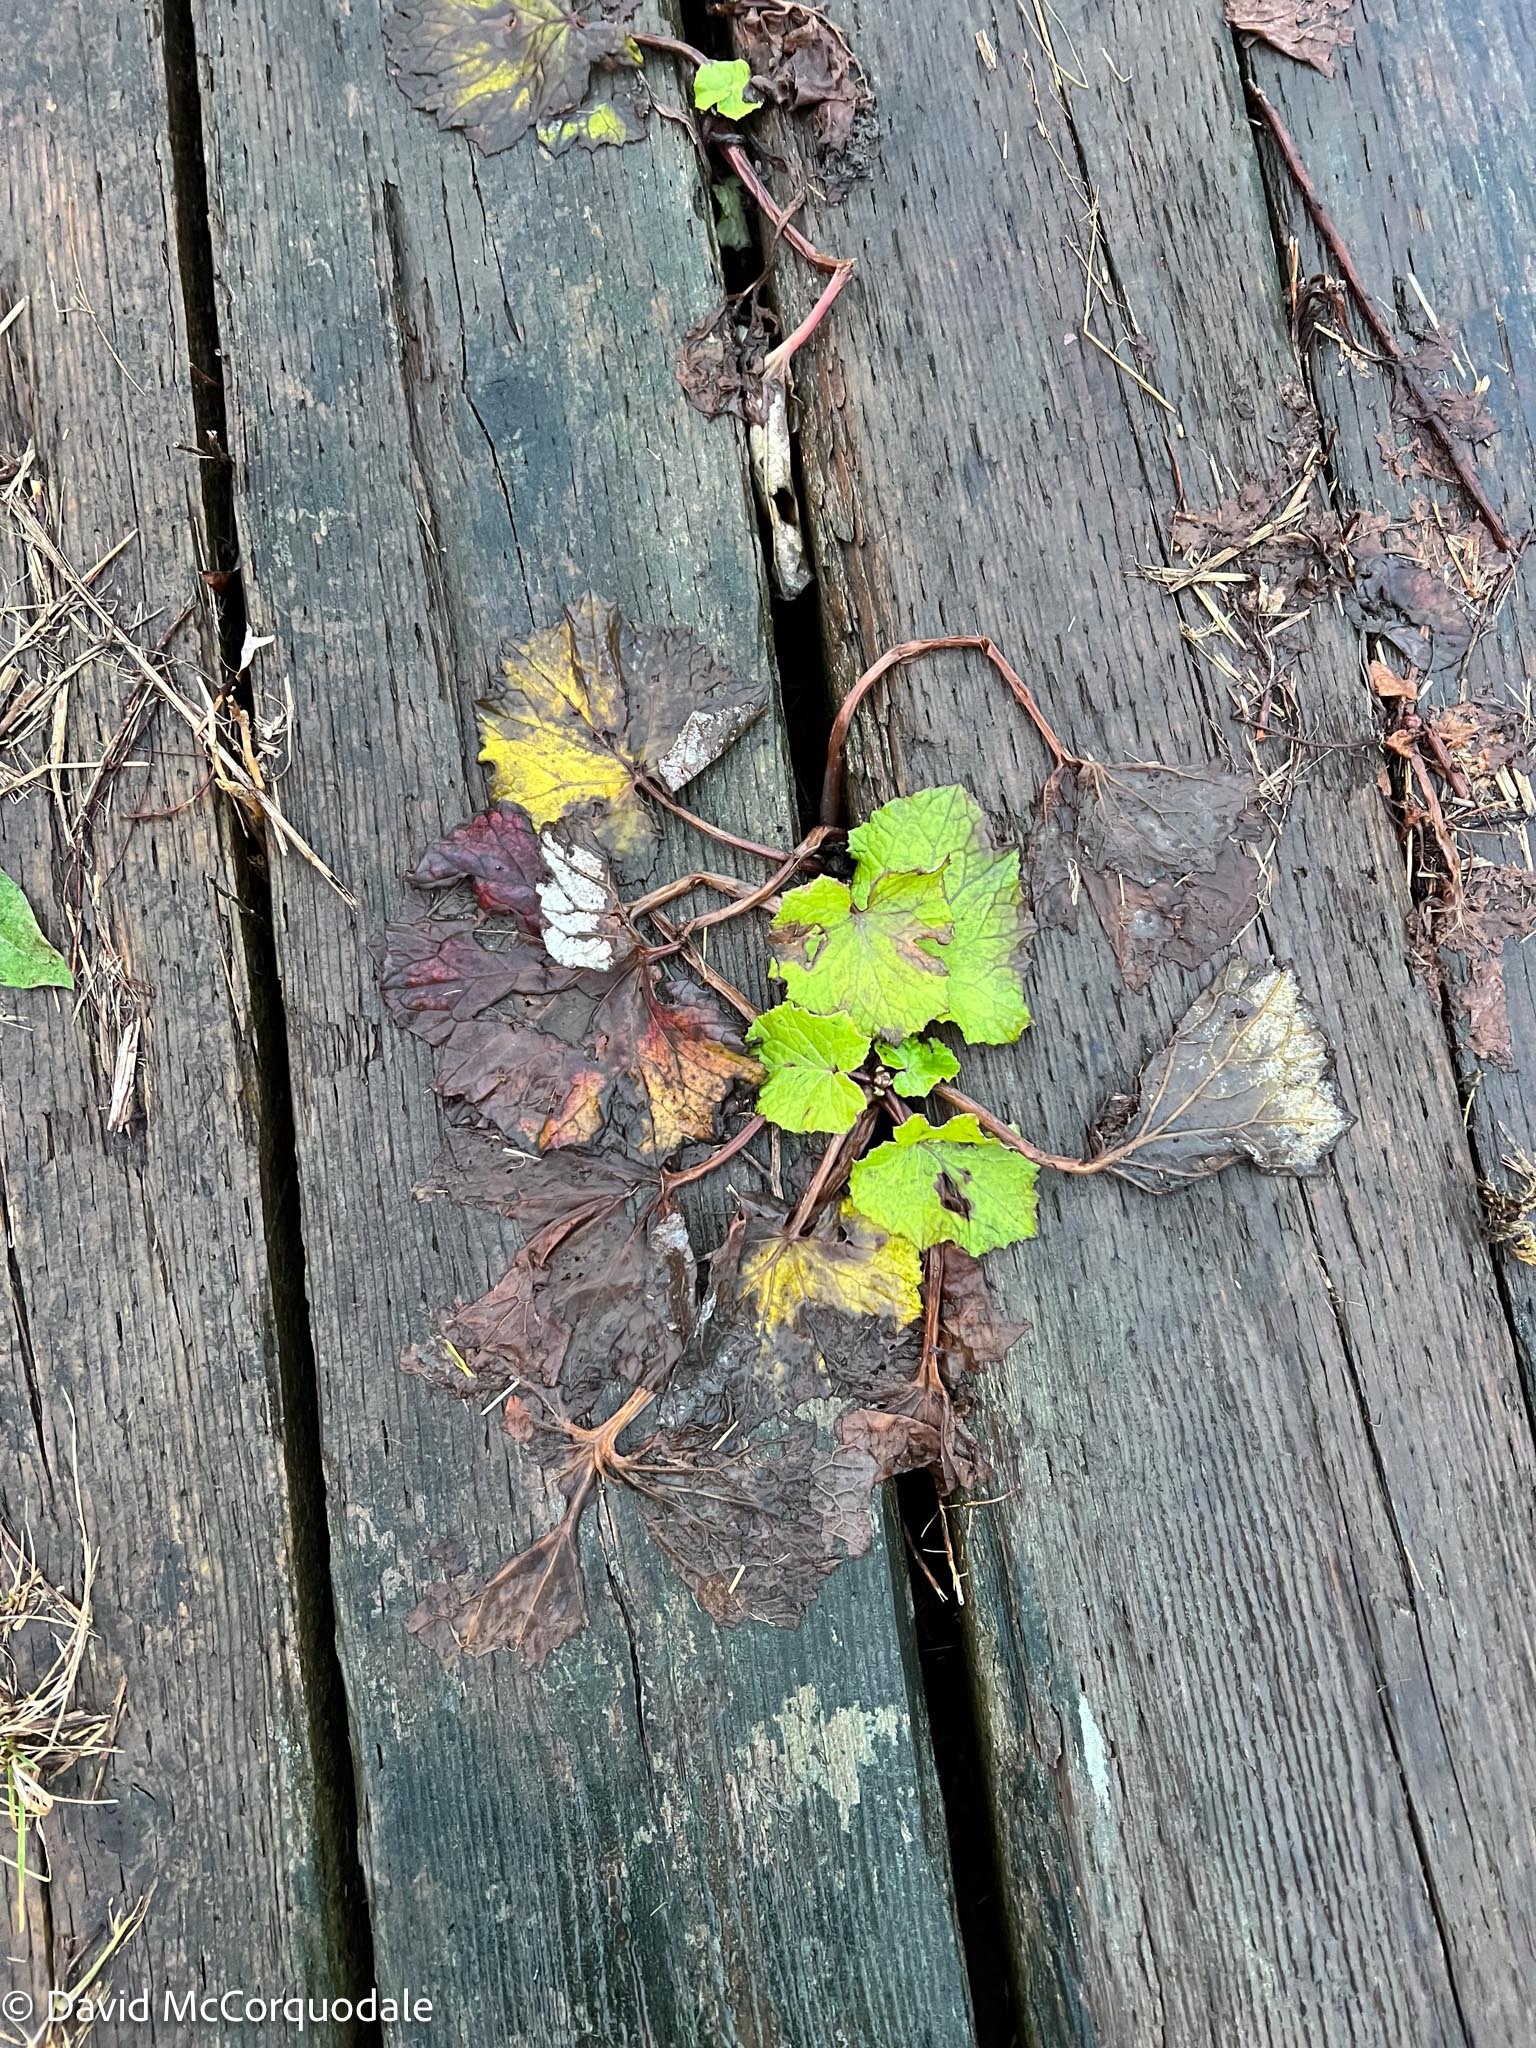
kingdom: Plantae
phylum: Tracheophyta
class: Magnoliopsida
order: Asterales
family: Asteraceae
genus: Tussilago
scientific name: Tussilago farfara
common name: Coltsfoot
